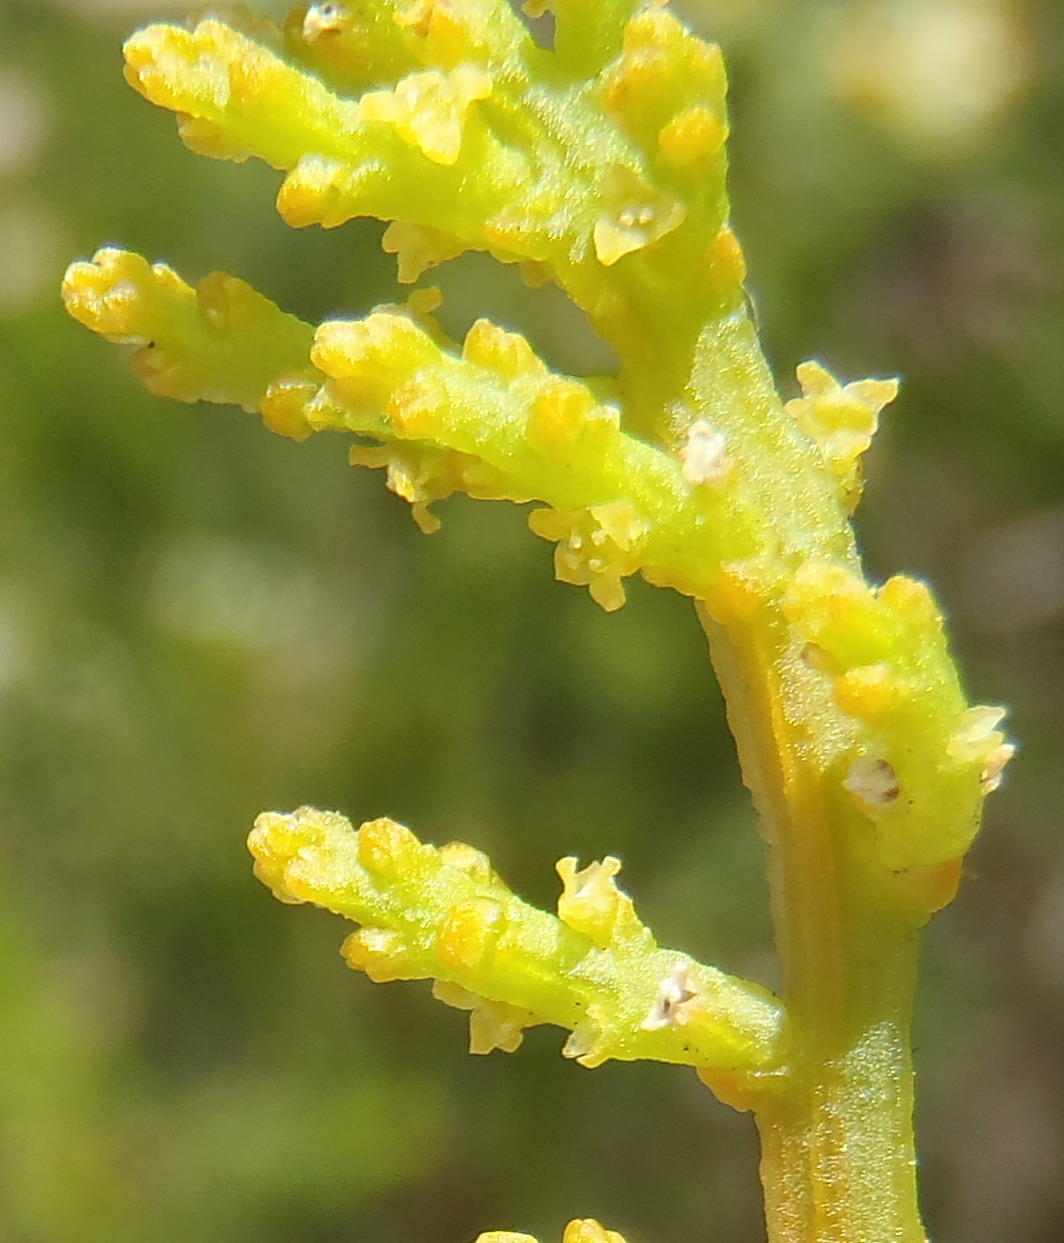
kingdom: Plantae
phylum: Tracheophyta
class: Magnoliopsida
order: Santalales
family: Thesiaceae
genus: Thesium
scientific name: Thesium fragile
